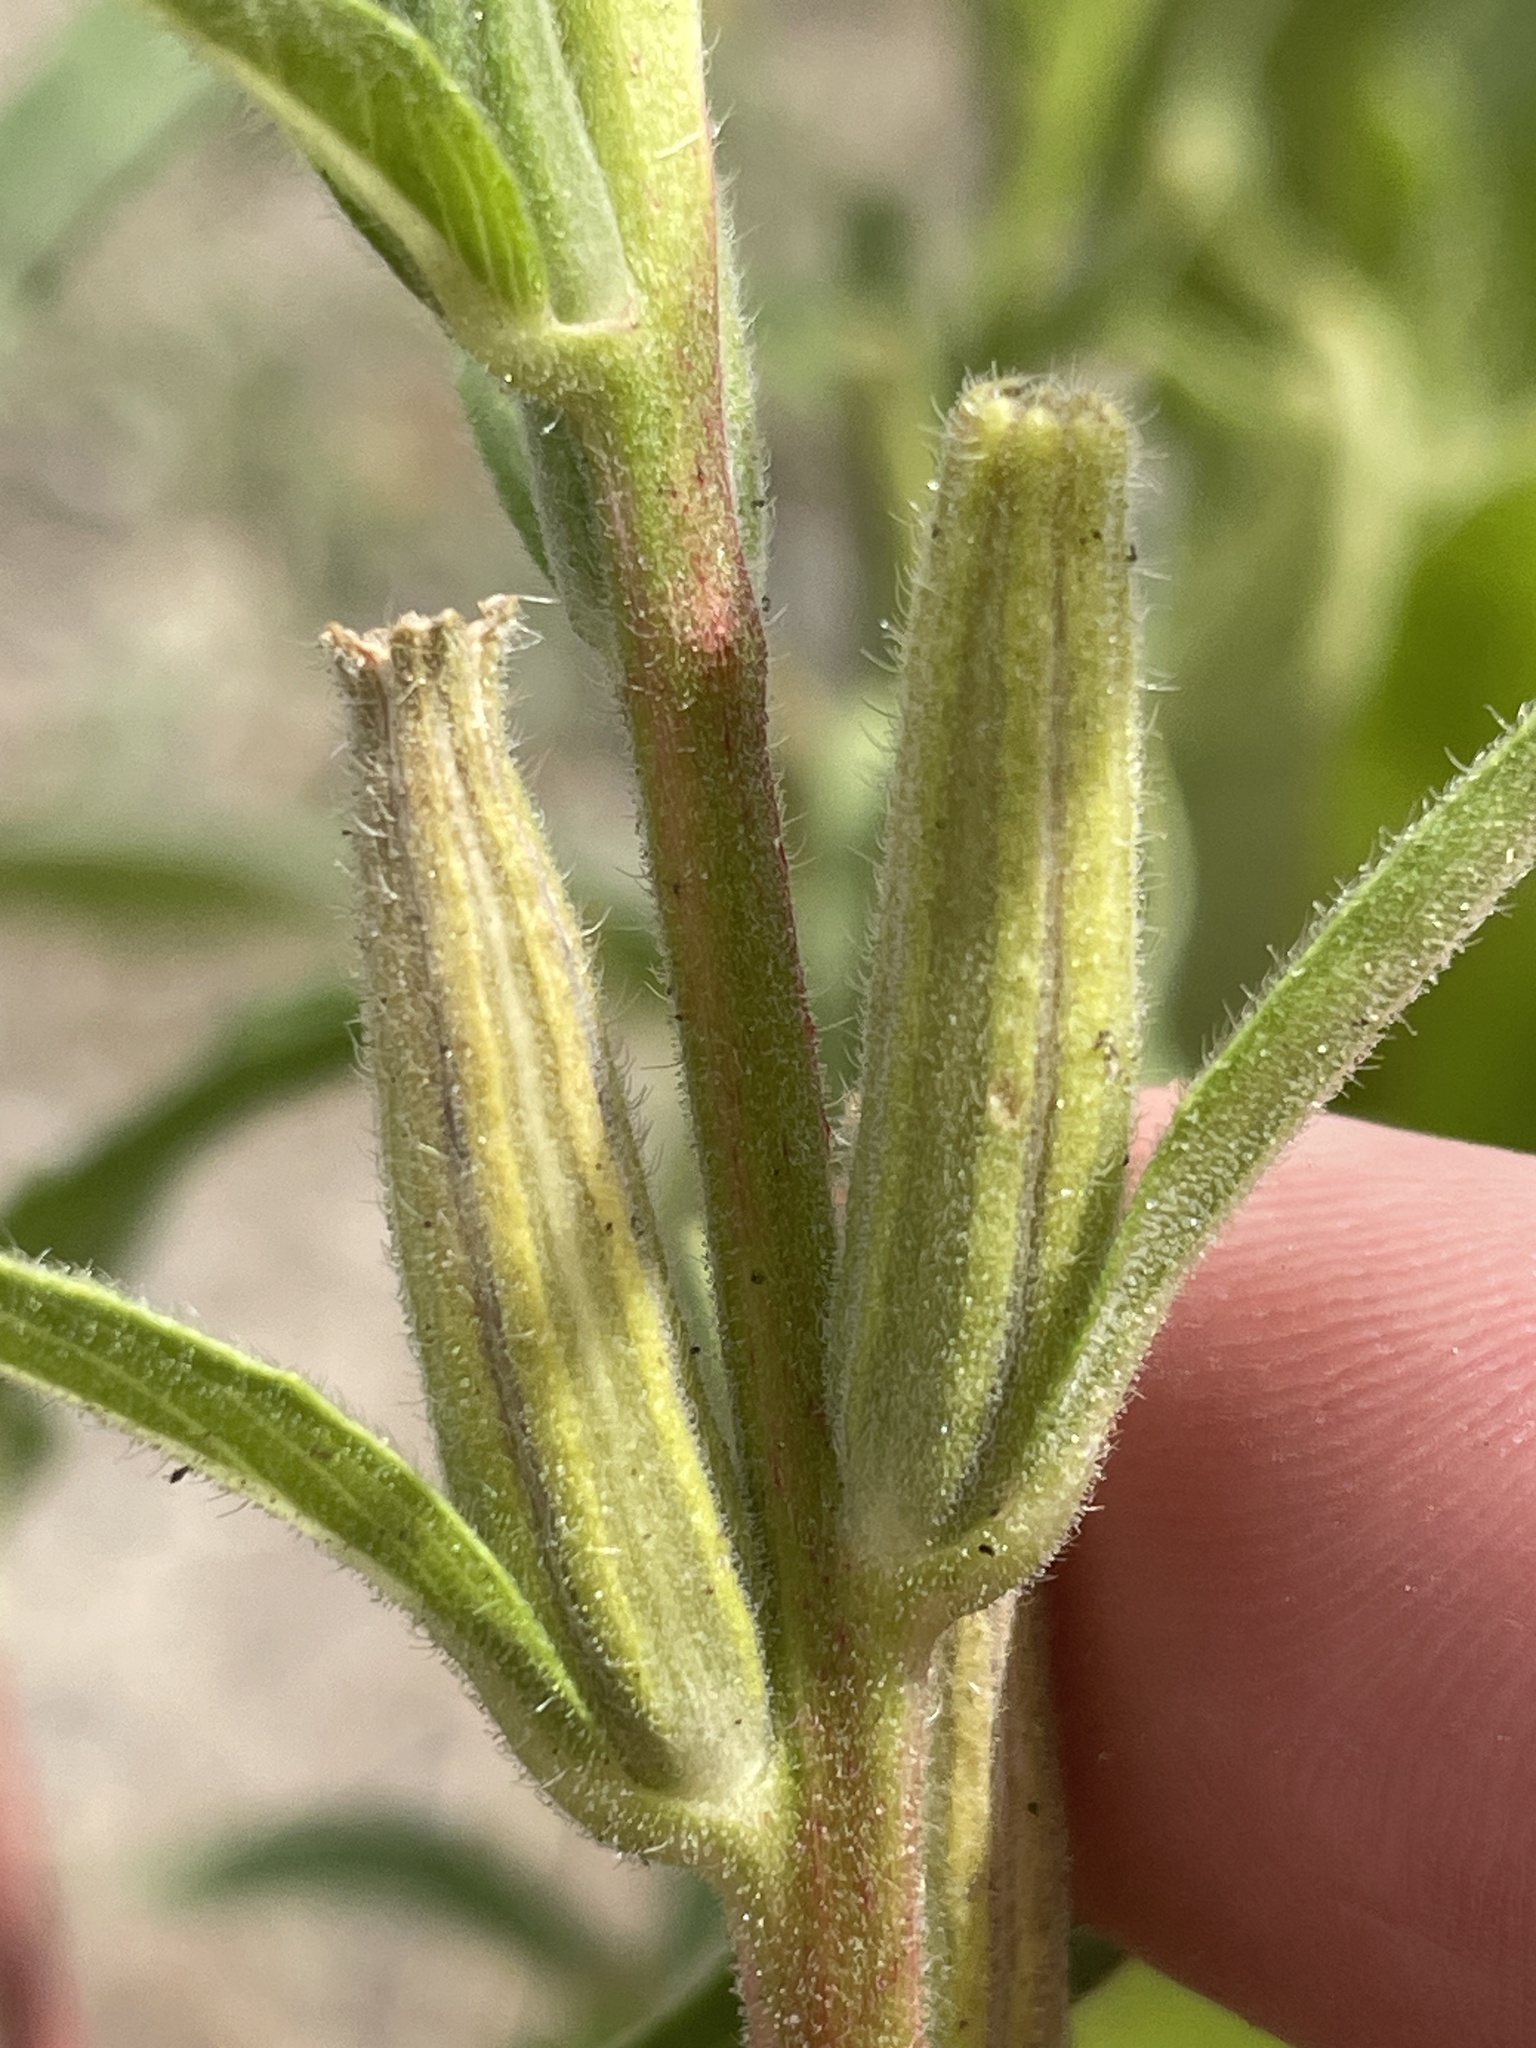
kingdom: Plantae
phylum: Tracheophyta
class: Magnoliopsida
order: Myrtales
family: Onagraceae
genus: Oenothera
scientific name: Oenothera biennis
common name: Common evening-primrose
